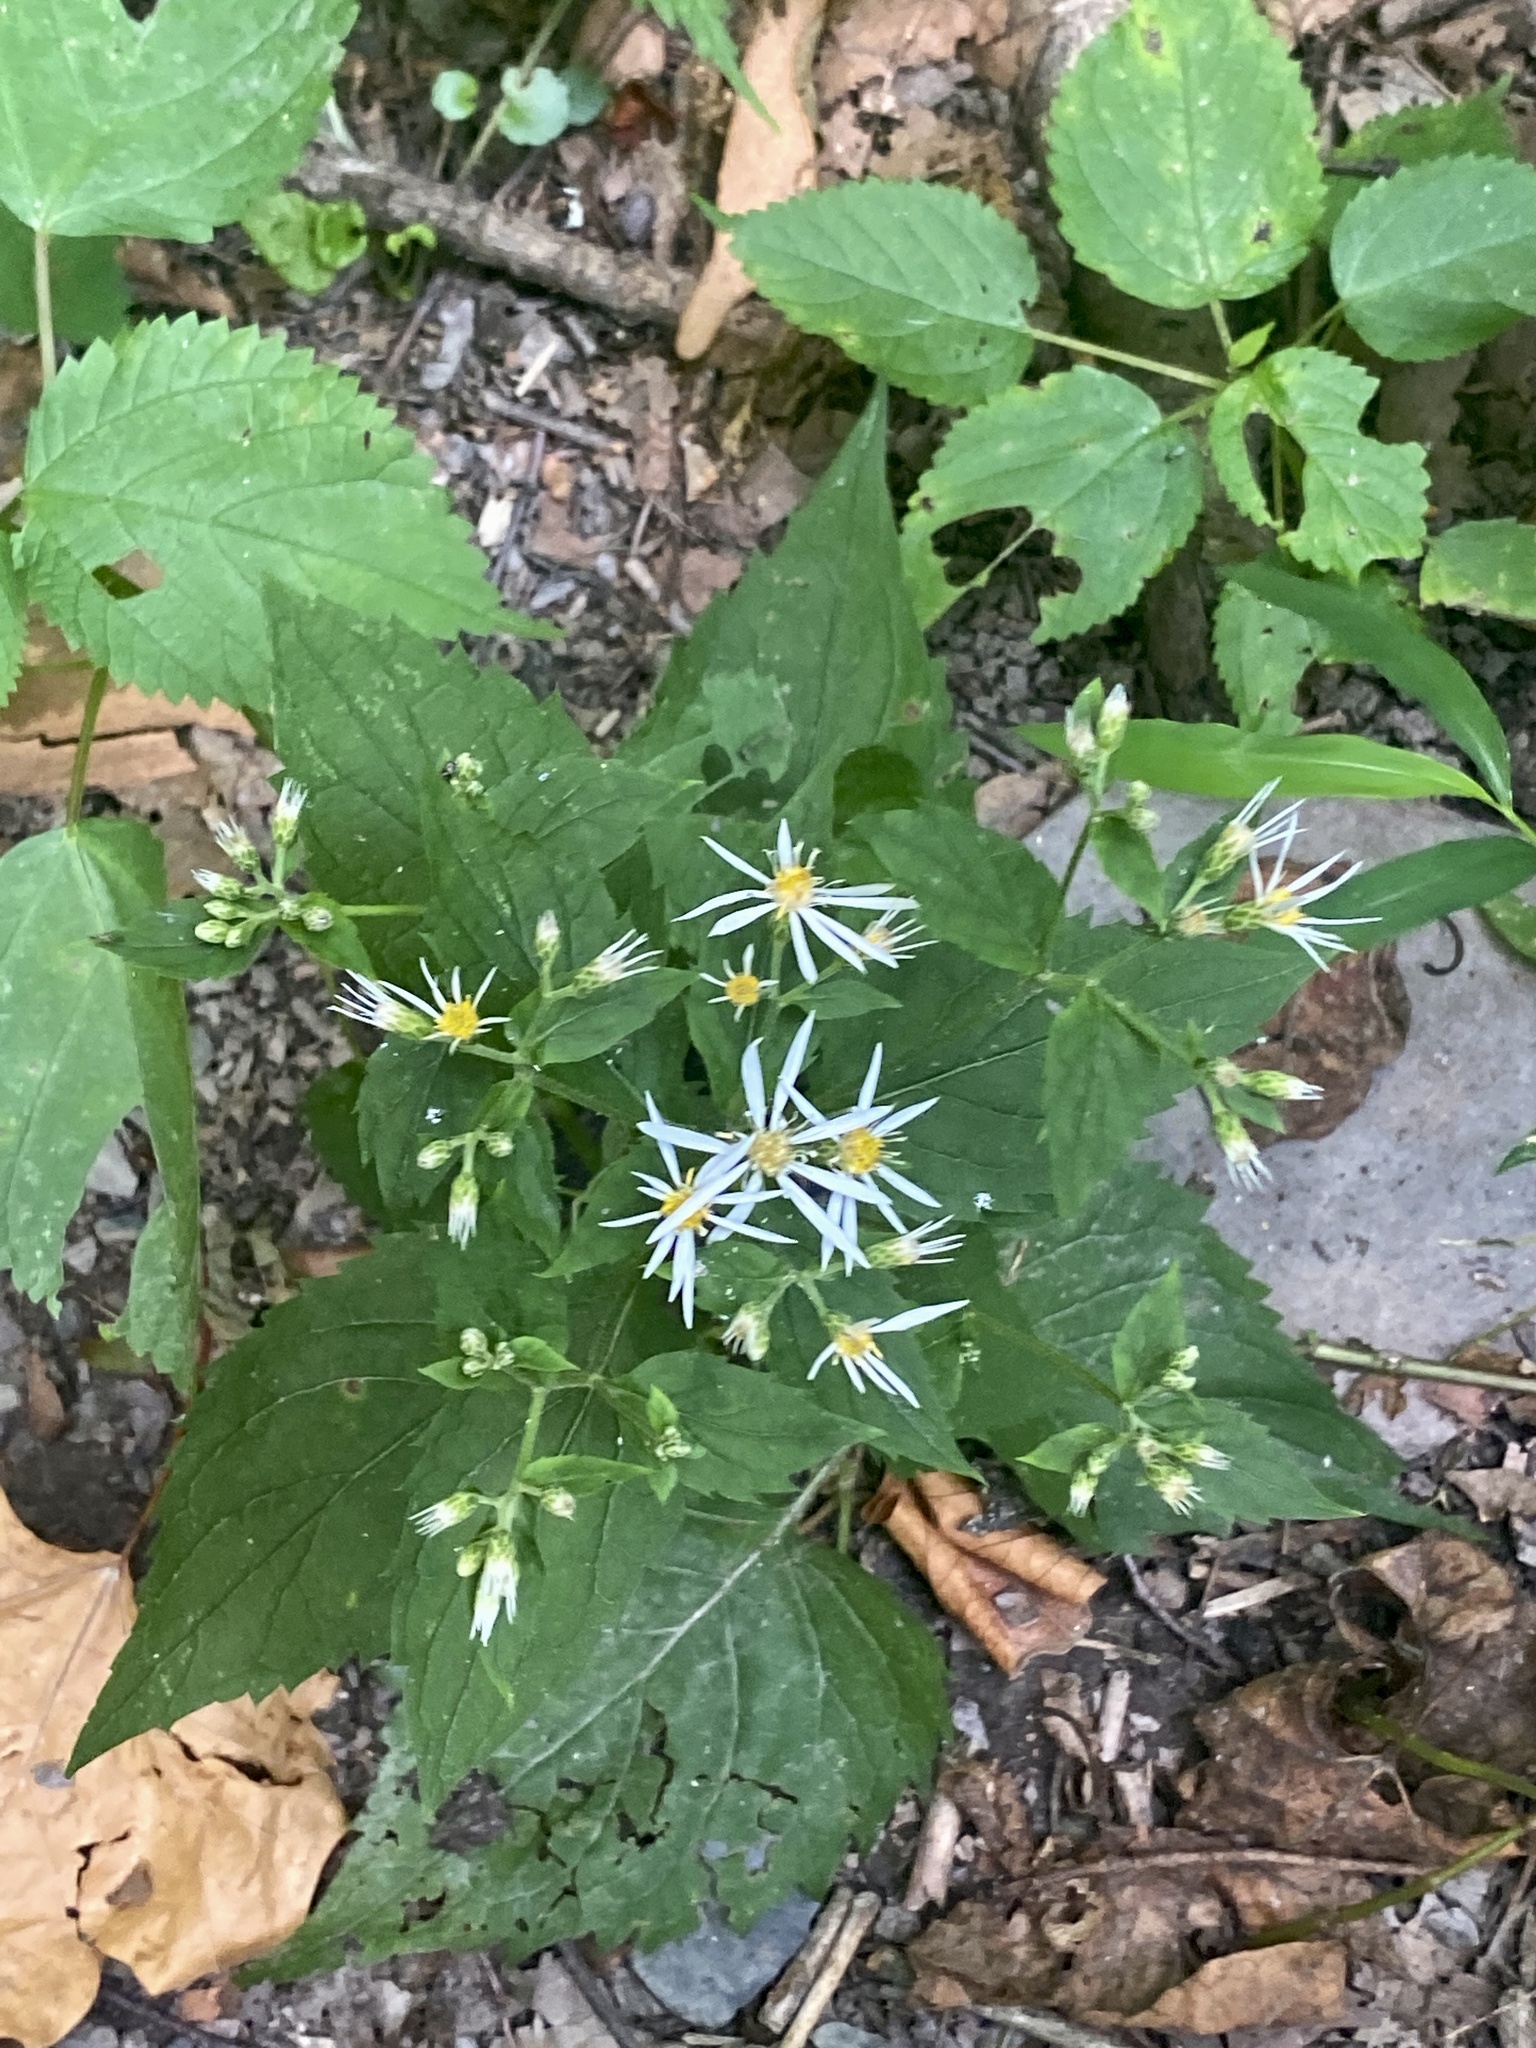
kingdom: Plantae
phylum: Tracheophyta
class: Magnoliopsida
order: Asterales
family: Asteraceae
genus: Eurybia
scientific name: Eurybia divaricata
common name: White wood aster
